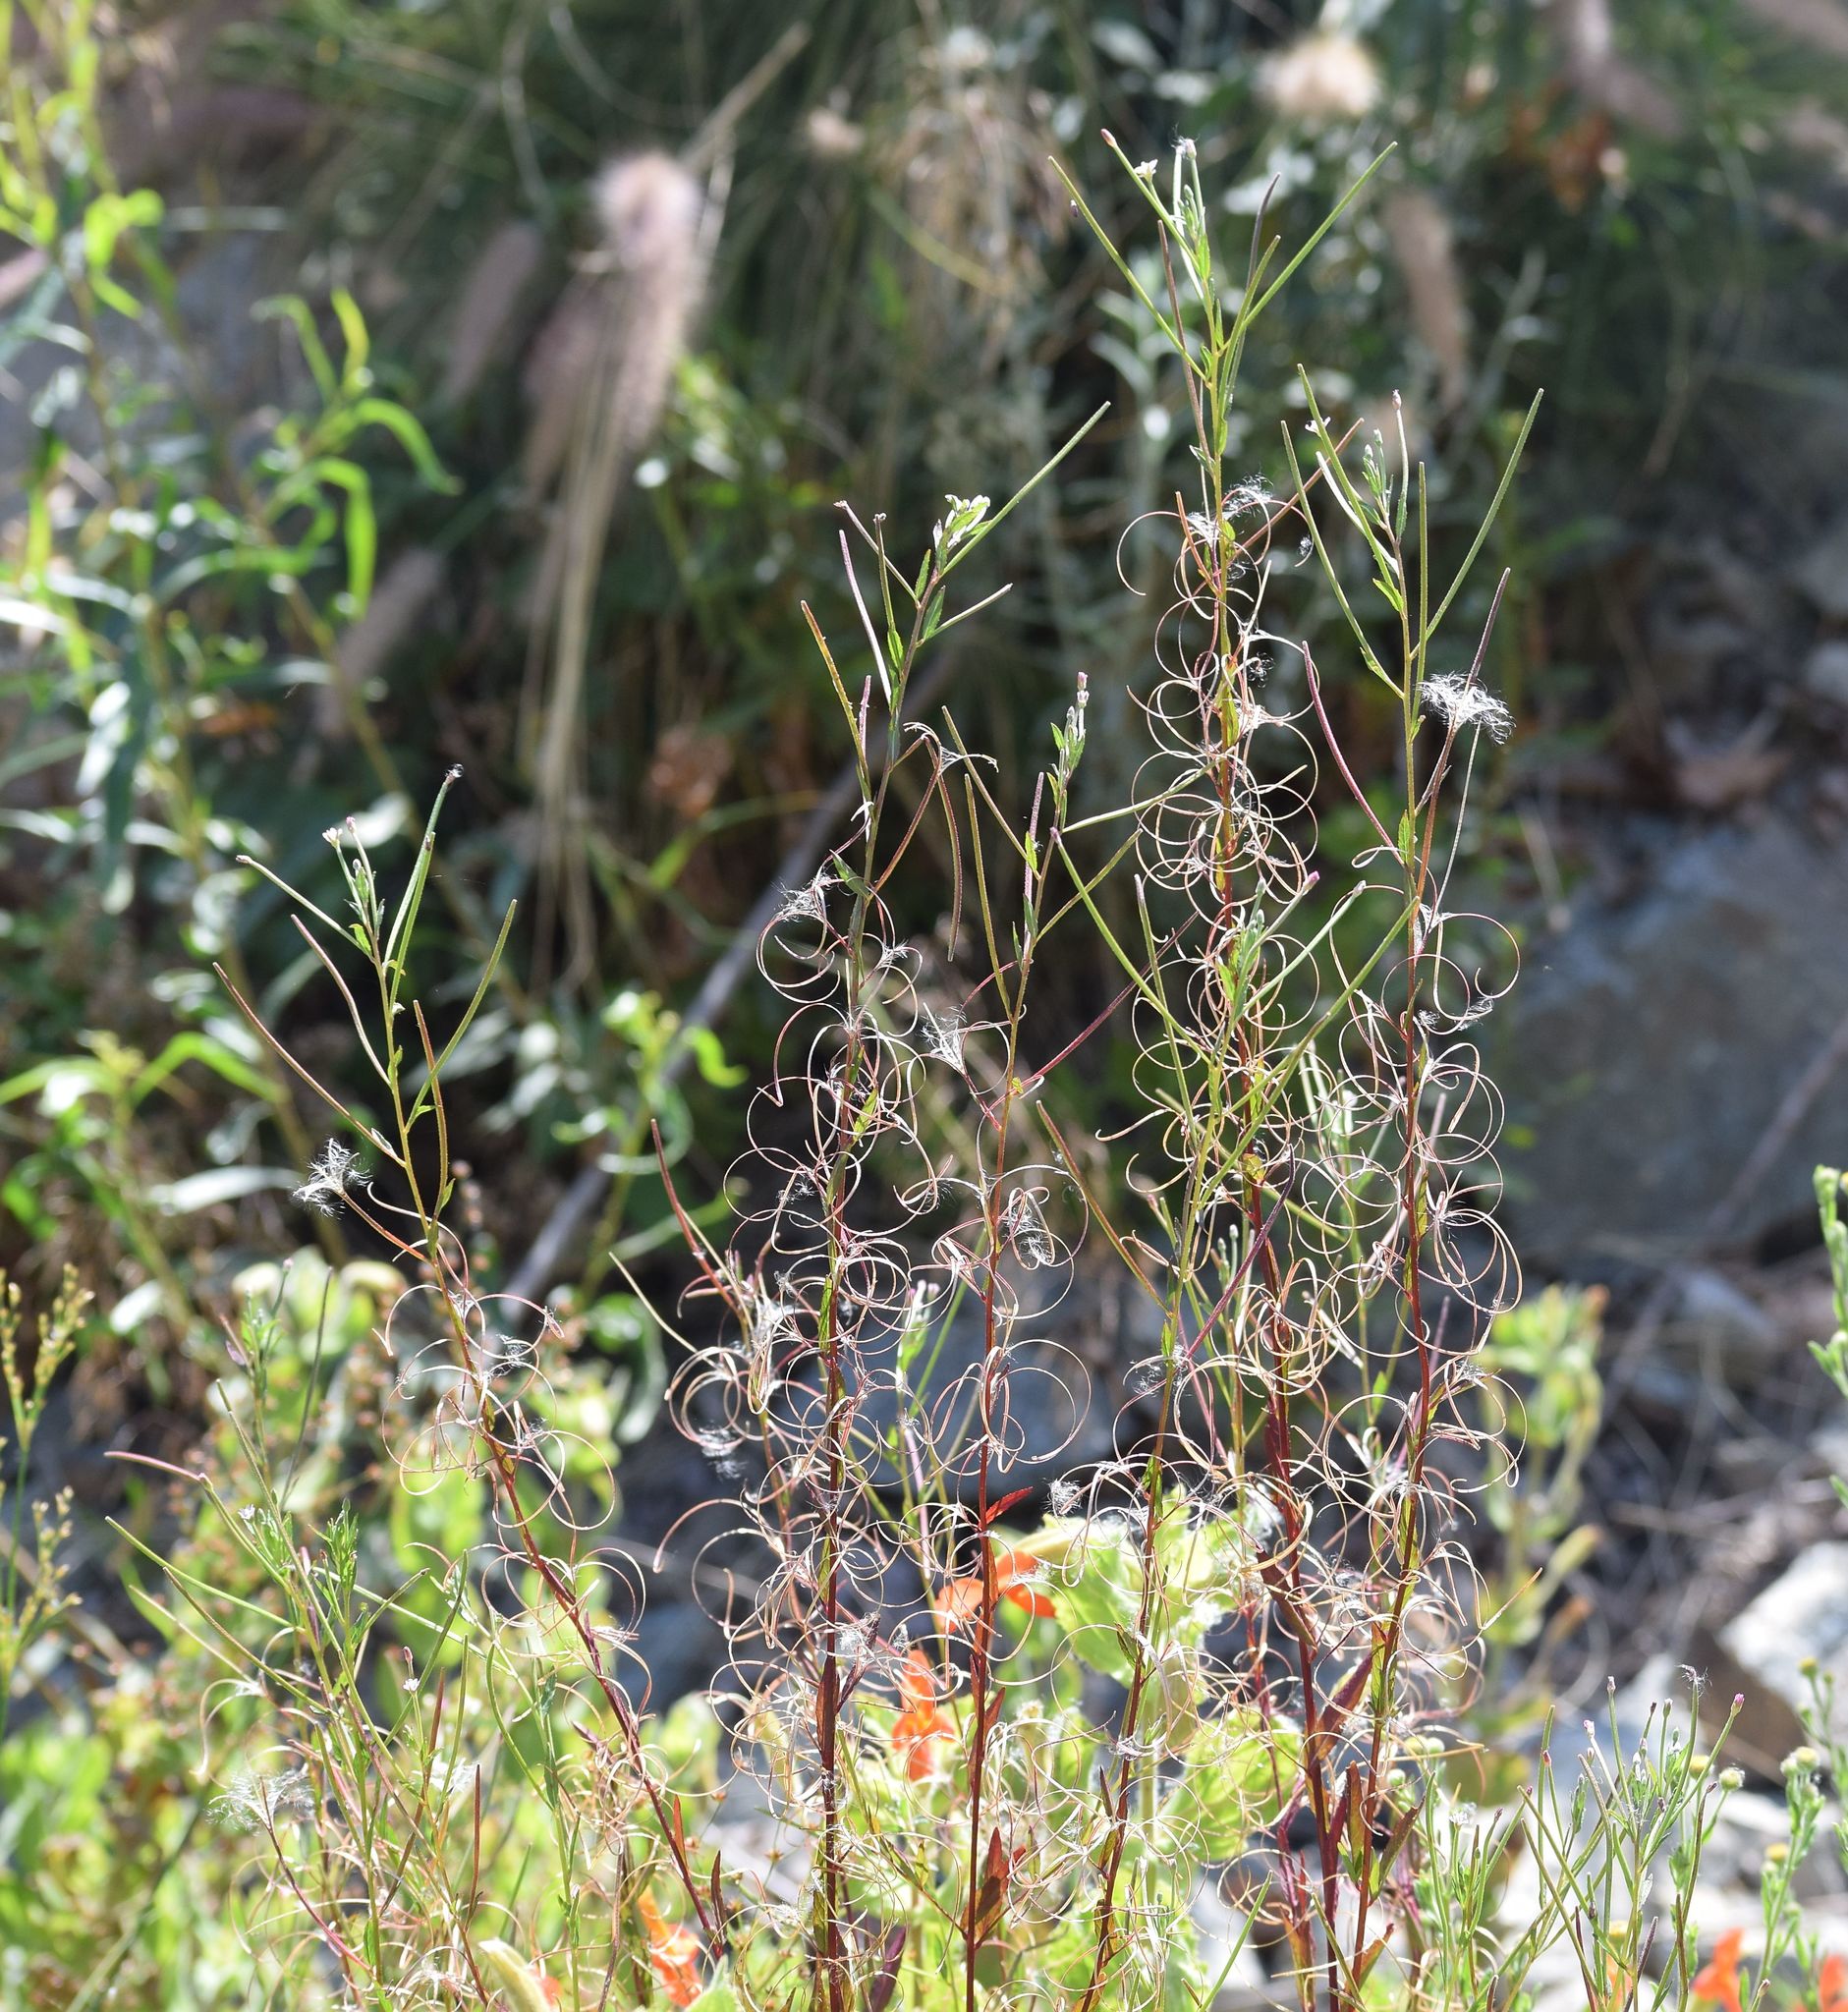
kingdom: Plantae
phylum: Tracheophyta
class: Magnoliopsida
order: Myrtales
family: Onagraceae
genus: Epilobium
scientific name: Epilobium ciliatum
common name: American willowherb
